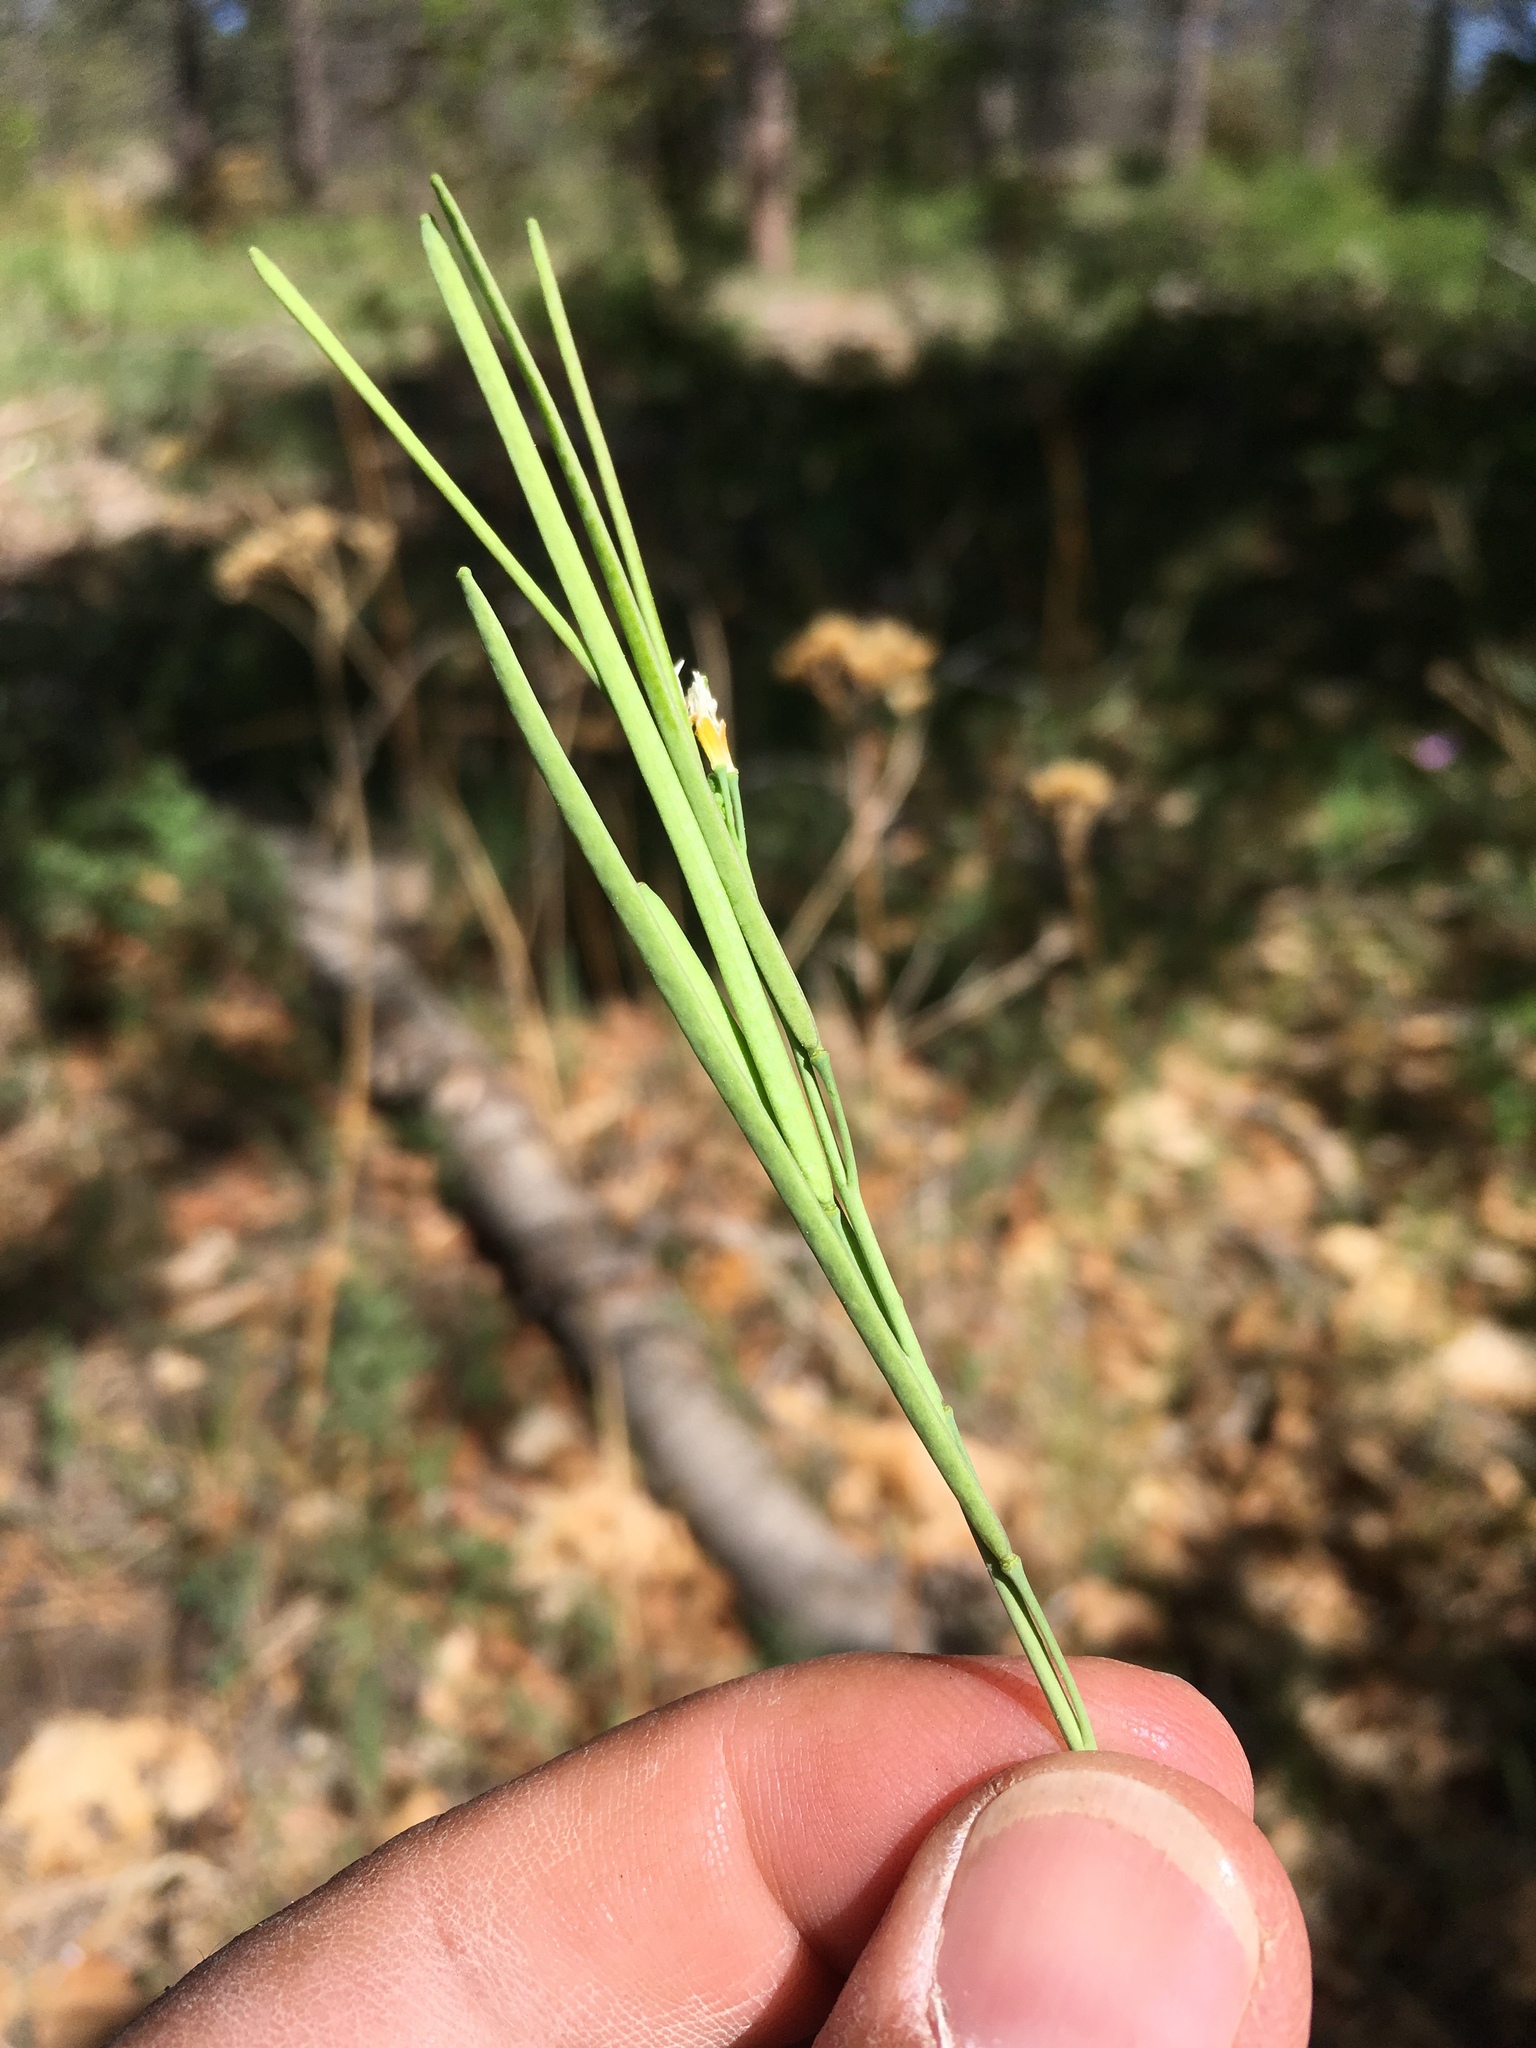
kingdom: Plantae
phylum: Tracheophyta
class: Magnoliopsida
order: Brassicales
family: Brassicaceae
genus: Boechera
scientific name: Boechera stricta
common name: Canadian rockcress
